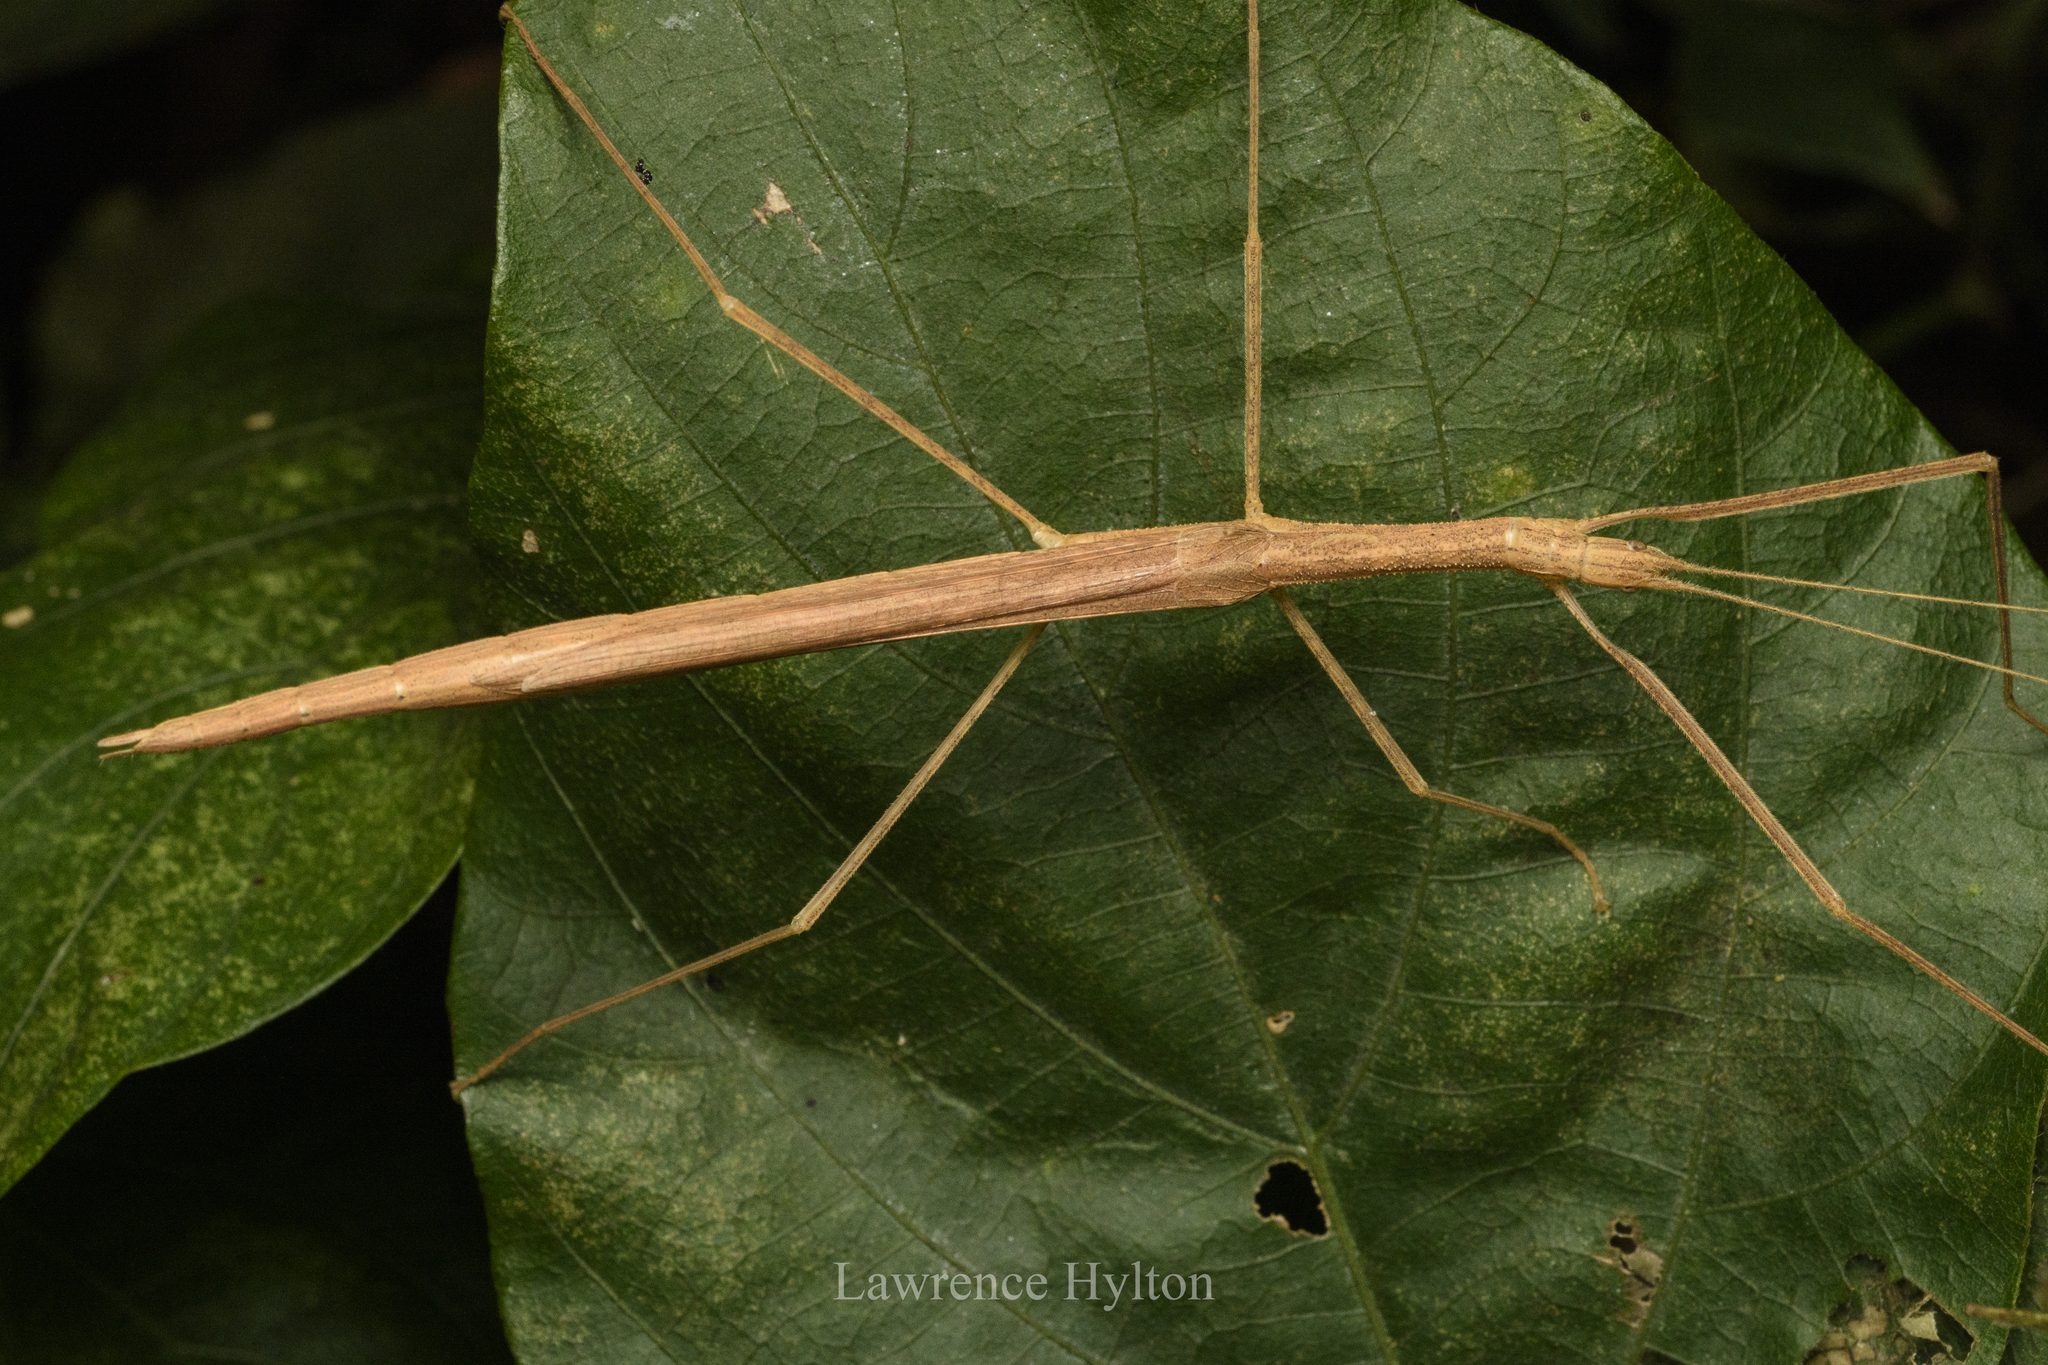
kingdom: Animalia
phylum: Arthropoda
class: Insecta
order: Phasmida
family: Lonchodidae
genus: Sipyloidea
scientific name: Sipyloidea sipylus
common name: Madagascan stick insect
